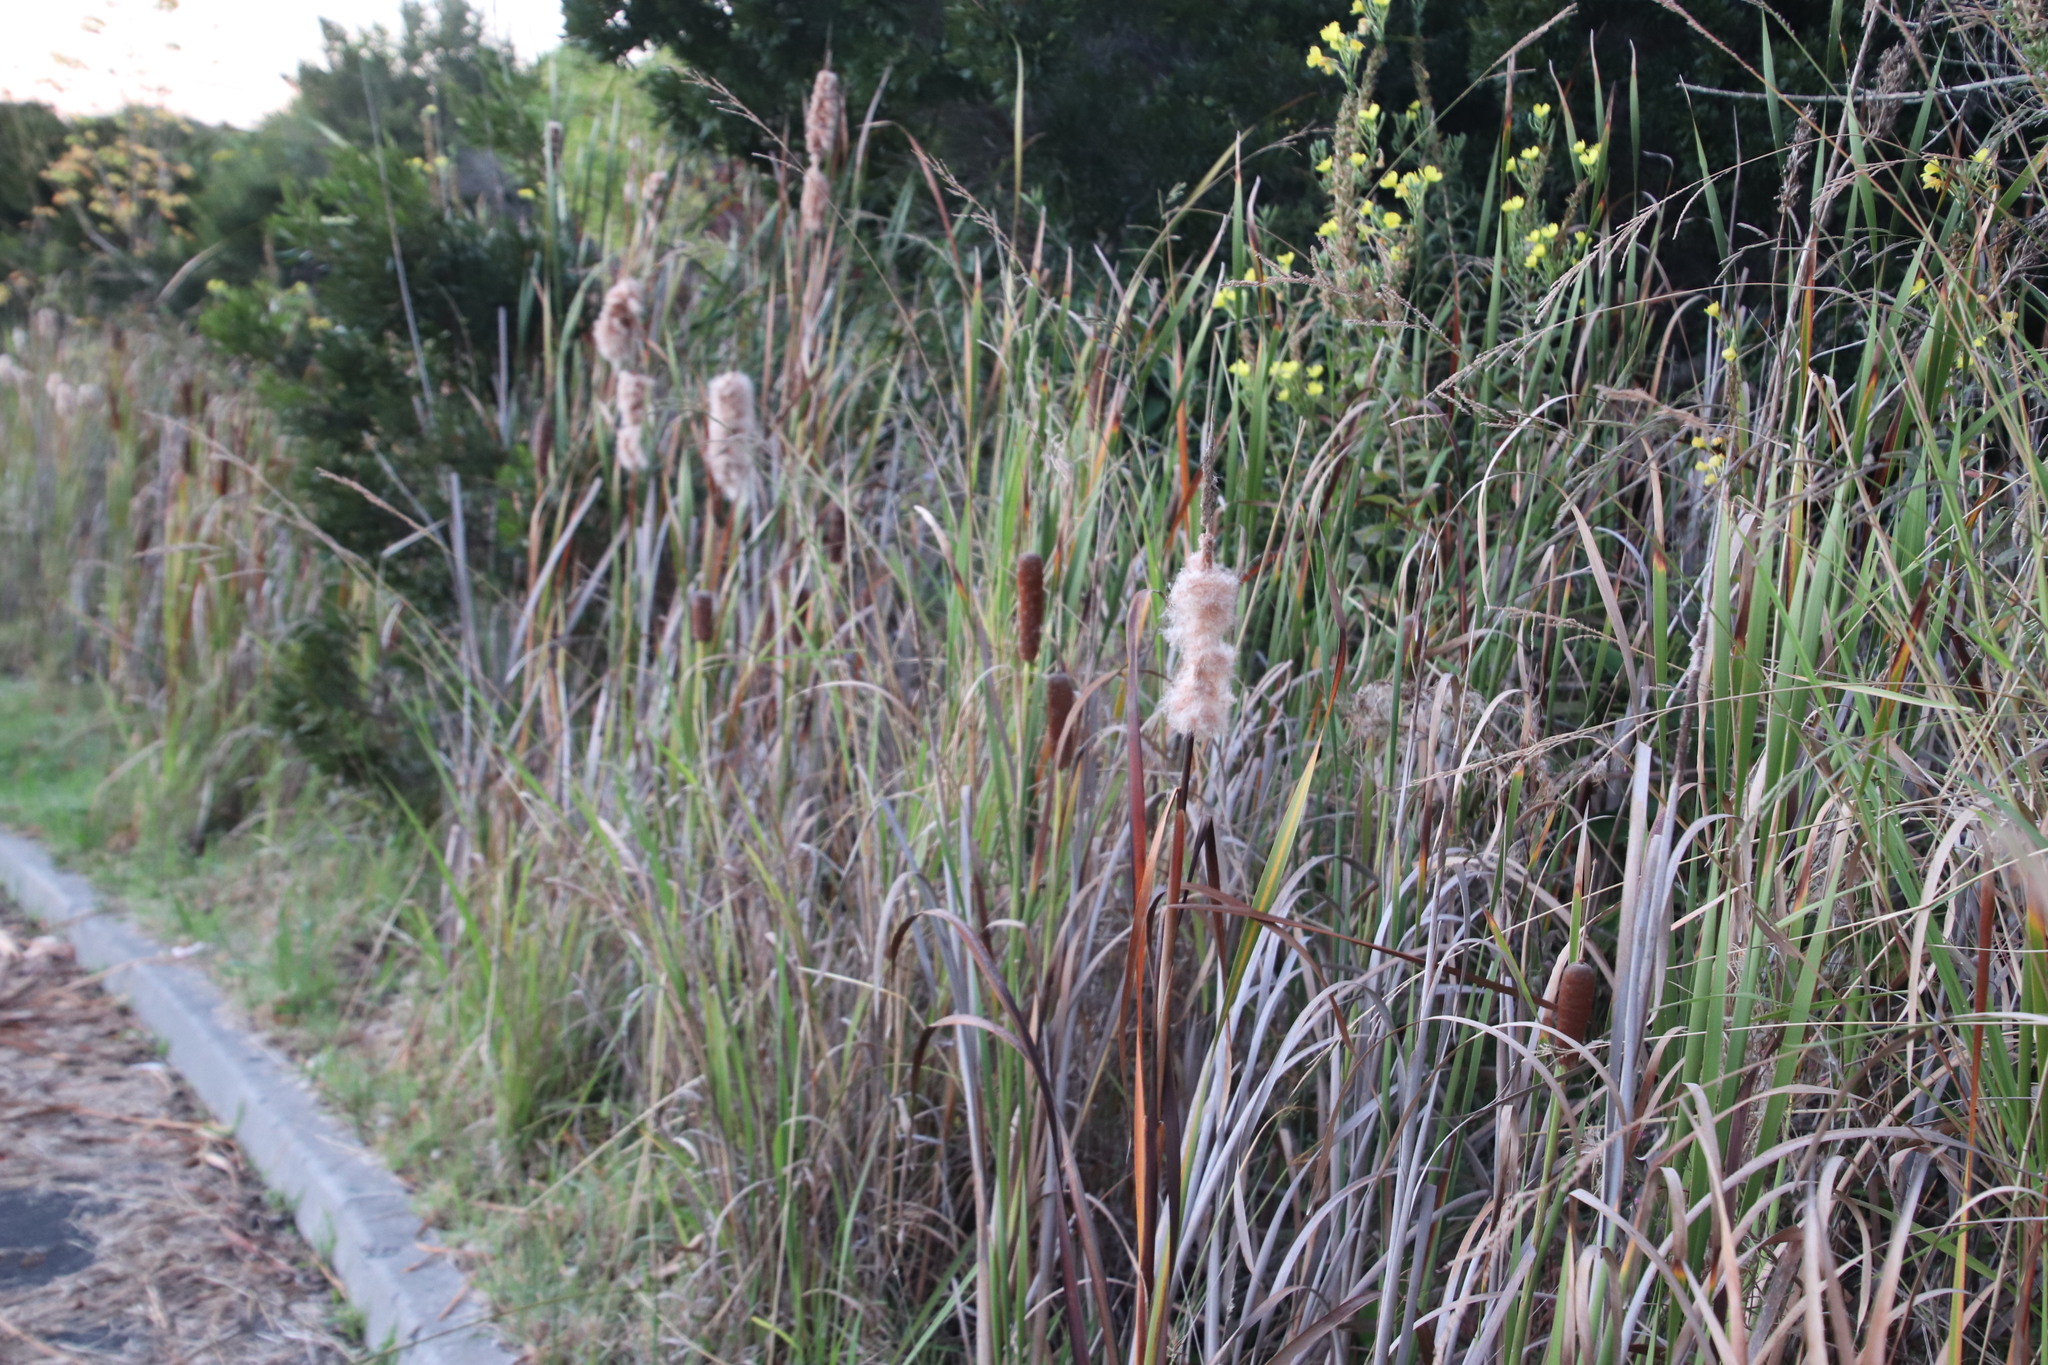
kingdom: Plantae
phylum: Tracheophyta
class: Liliopsida
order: Poales
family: Typhaceae
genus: Typha
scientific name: Typha capensis
